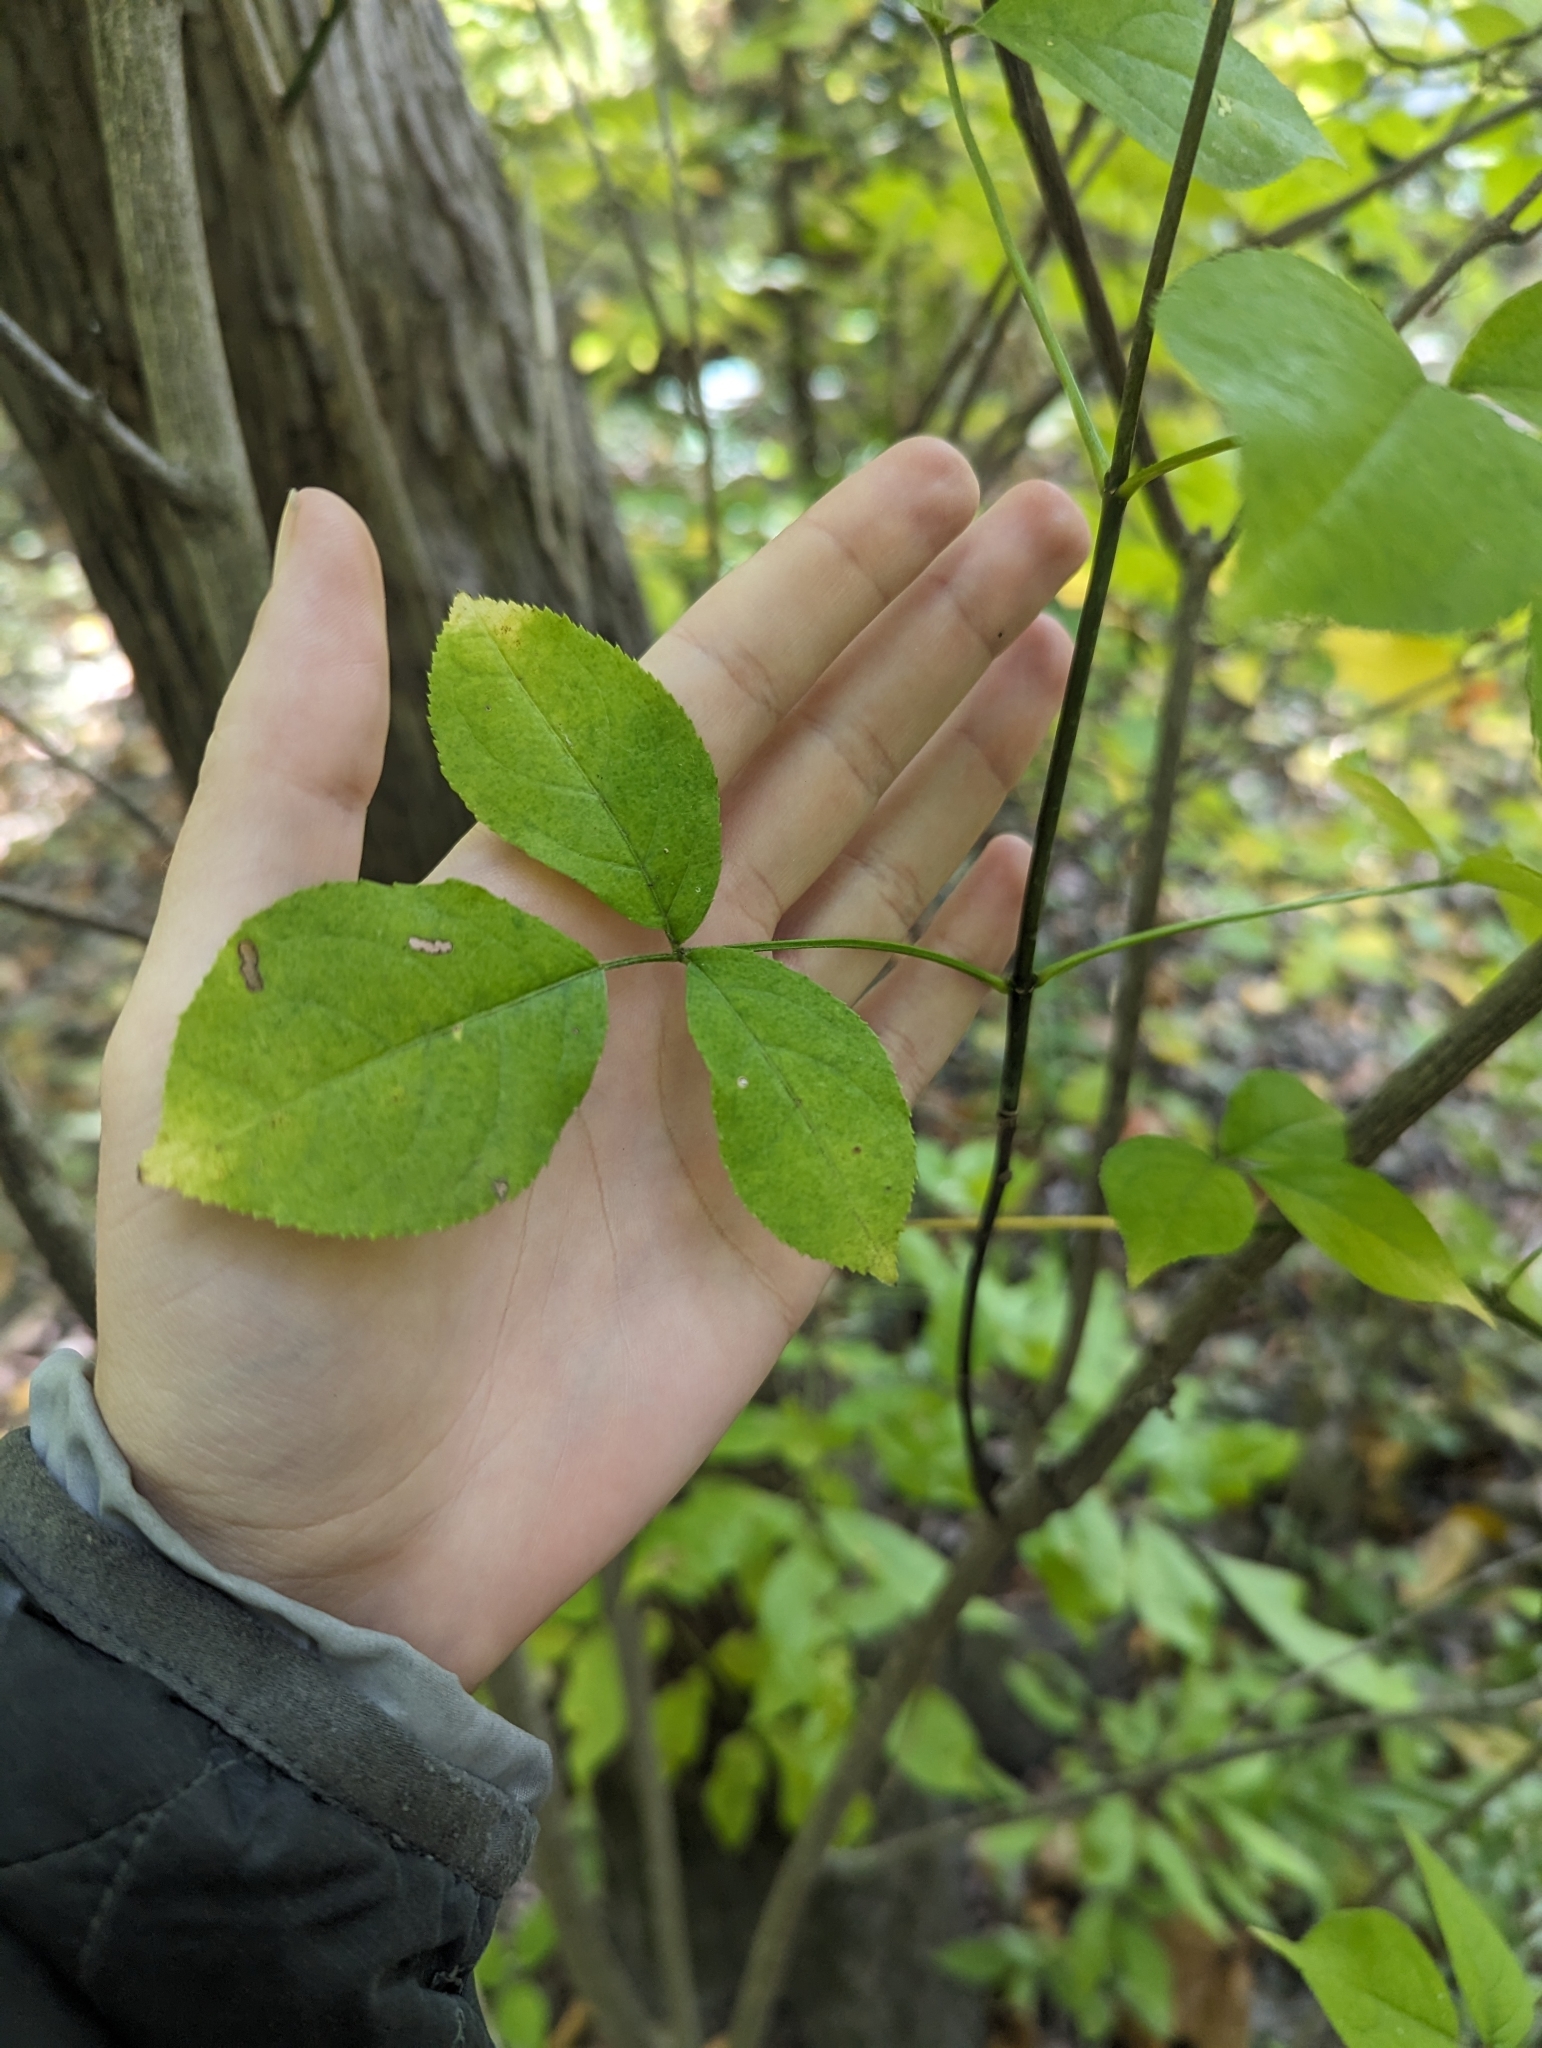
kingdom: Plantae
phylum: Tracheophyta
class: Magnoliopsida
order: Crossosomatales
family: Staphyleaceae
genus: Staphylea
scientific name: Staphylea trifolia
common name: American bladdernut
